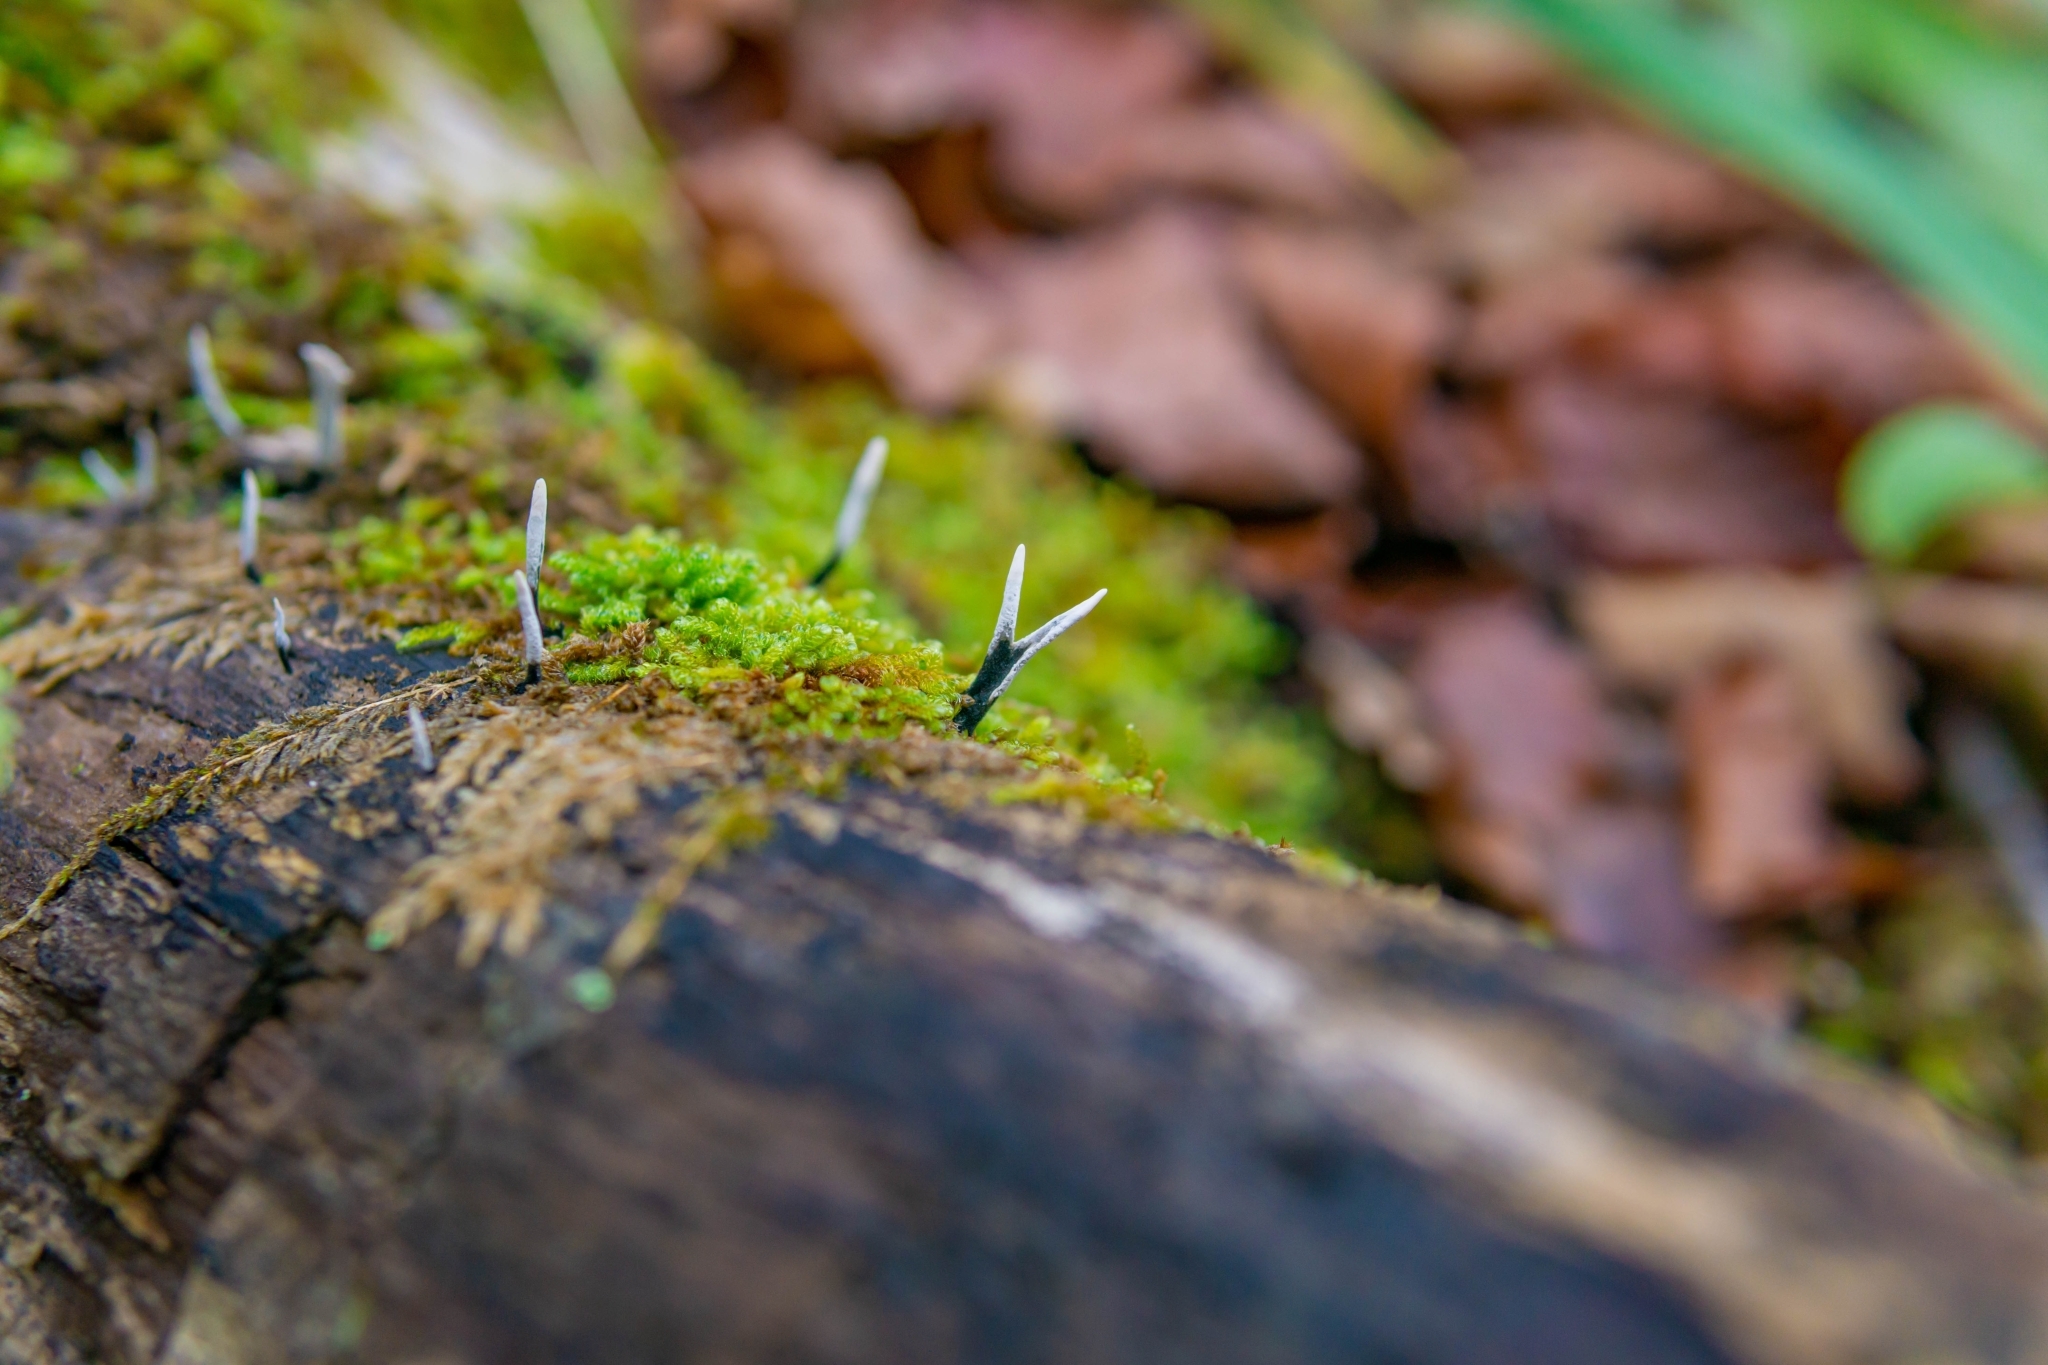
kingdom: Fungi
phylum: Ascomycota
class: Sordariomycetes
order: Xylariales
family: Xylariaceae
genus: Xylaria
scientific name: Xylaria hypoxylon
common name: Candle-snuff fungus
